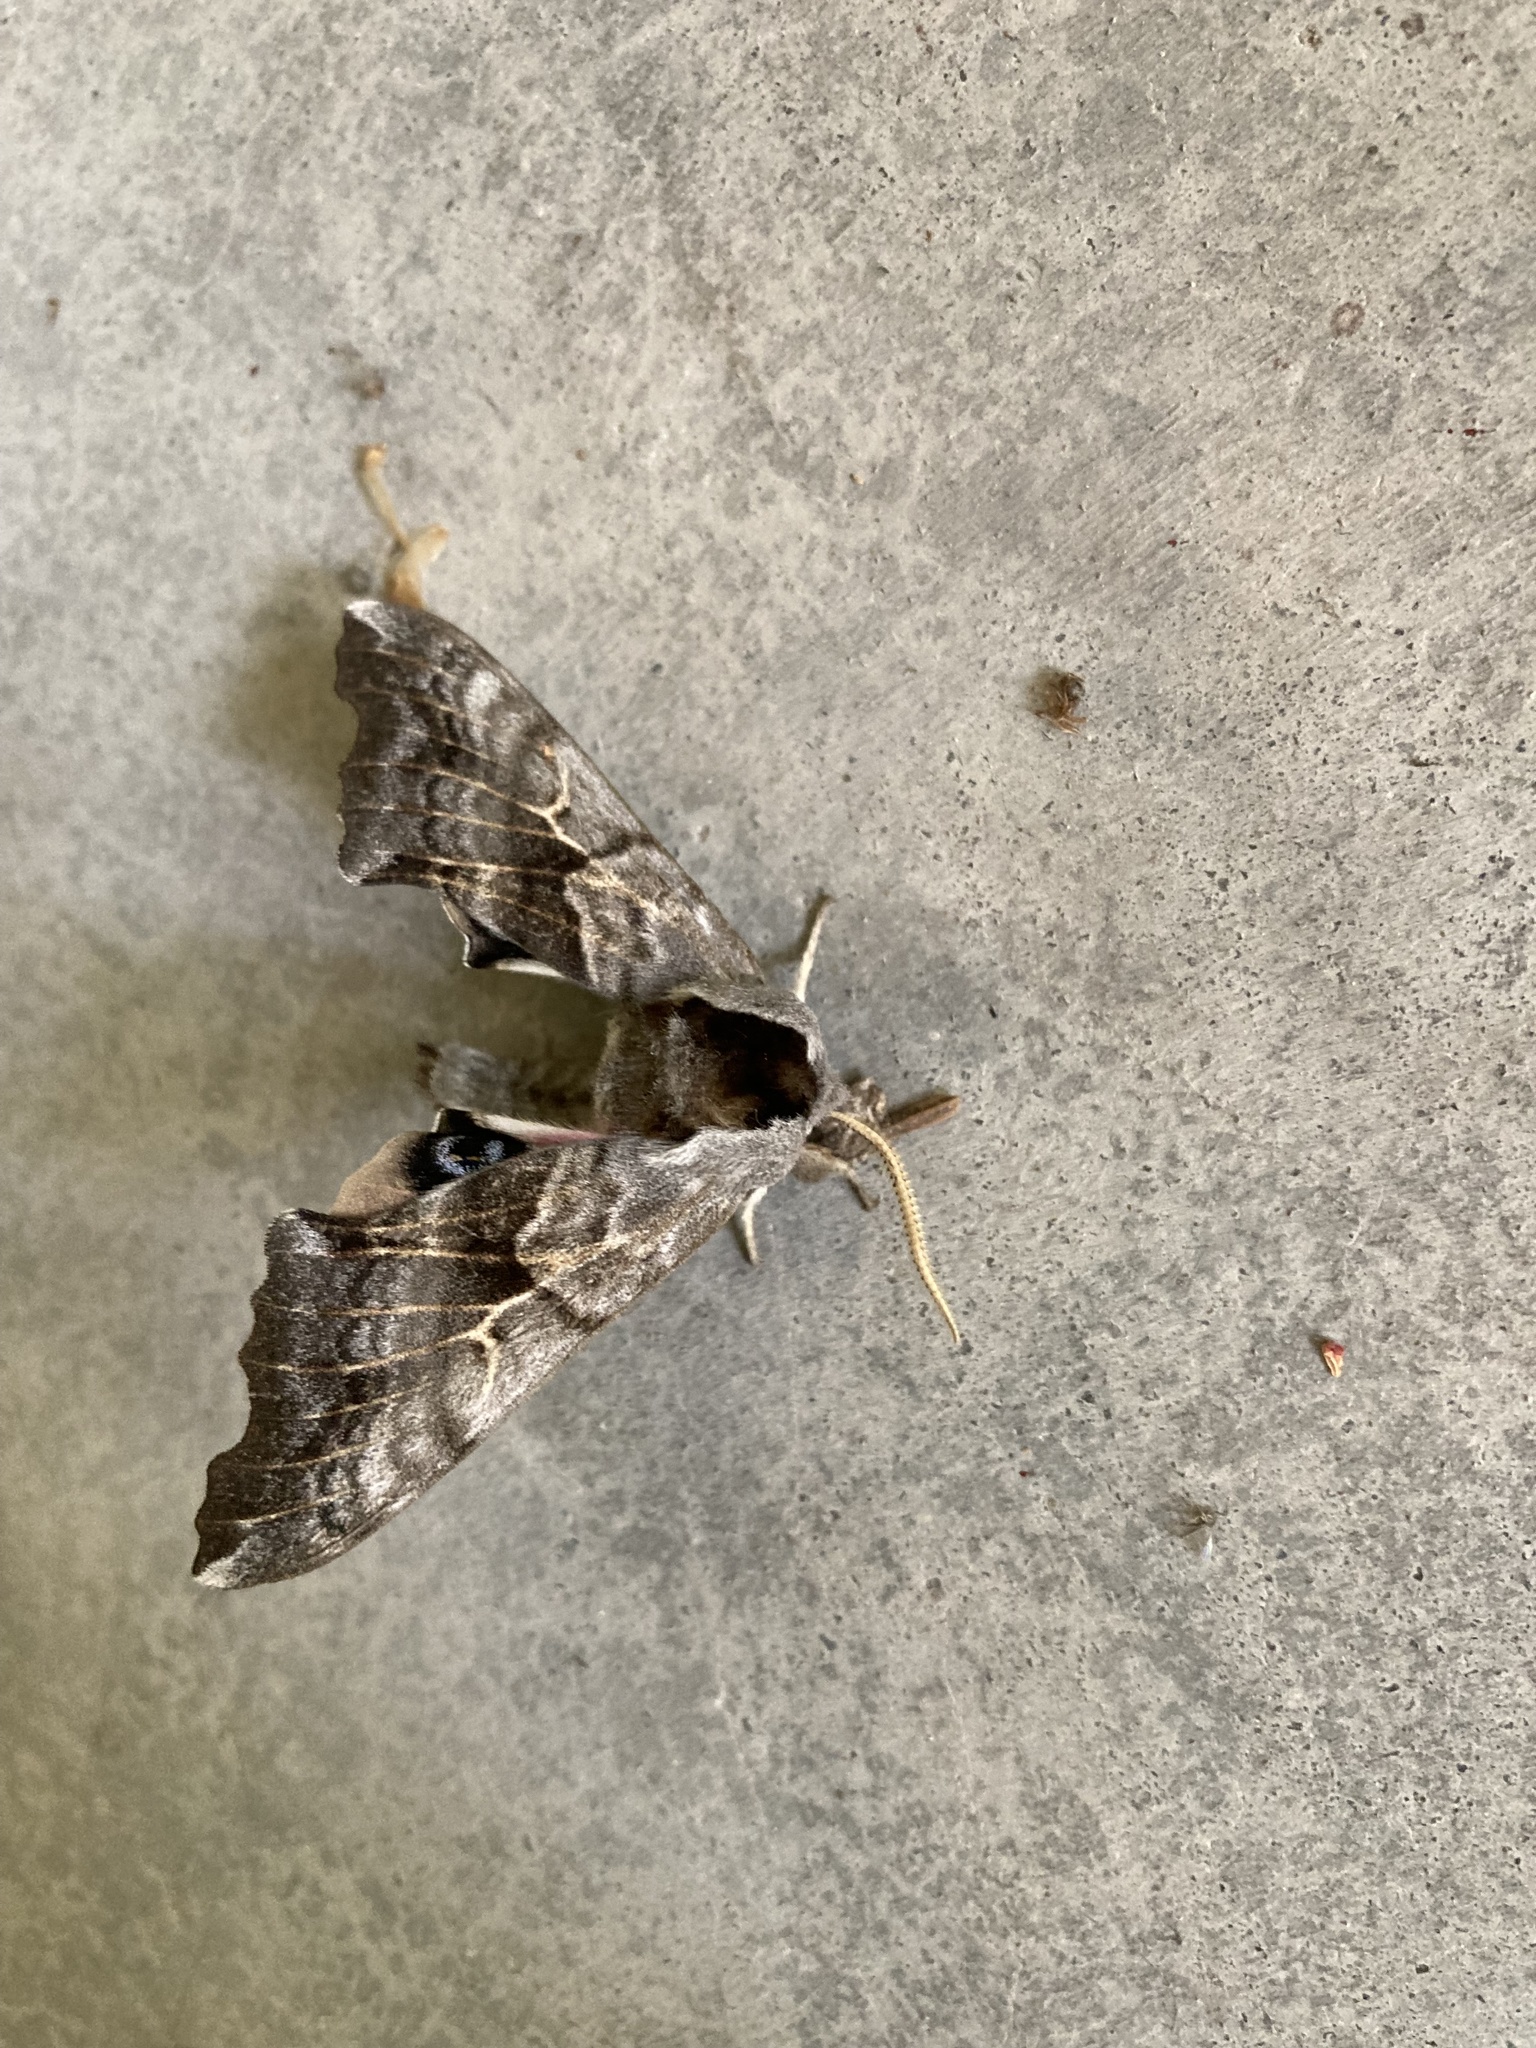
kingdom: Animalia
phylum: Arthropoda
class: Insecta
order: Lepidoptera
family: Sphingidae
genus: Smerinthus
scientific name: Smerinthus cerisyi
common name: Cerisy's sphinx moth
